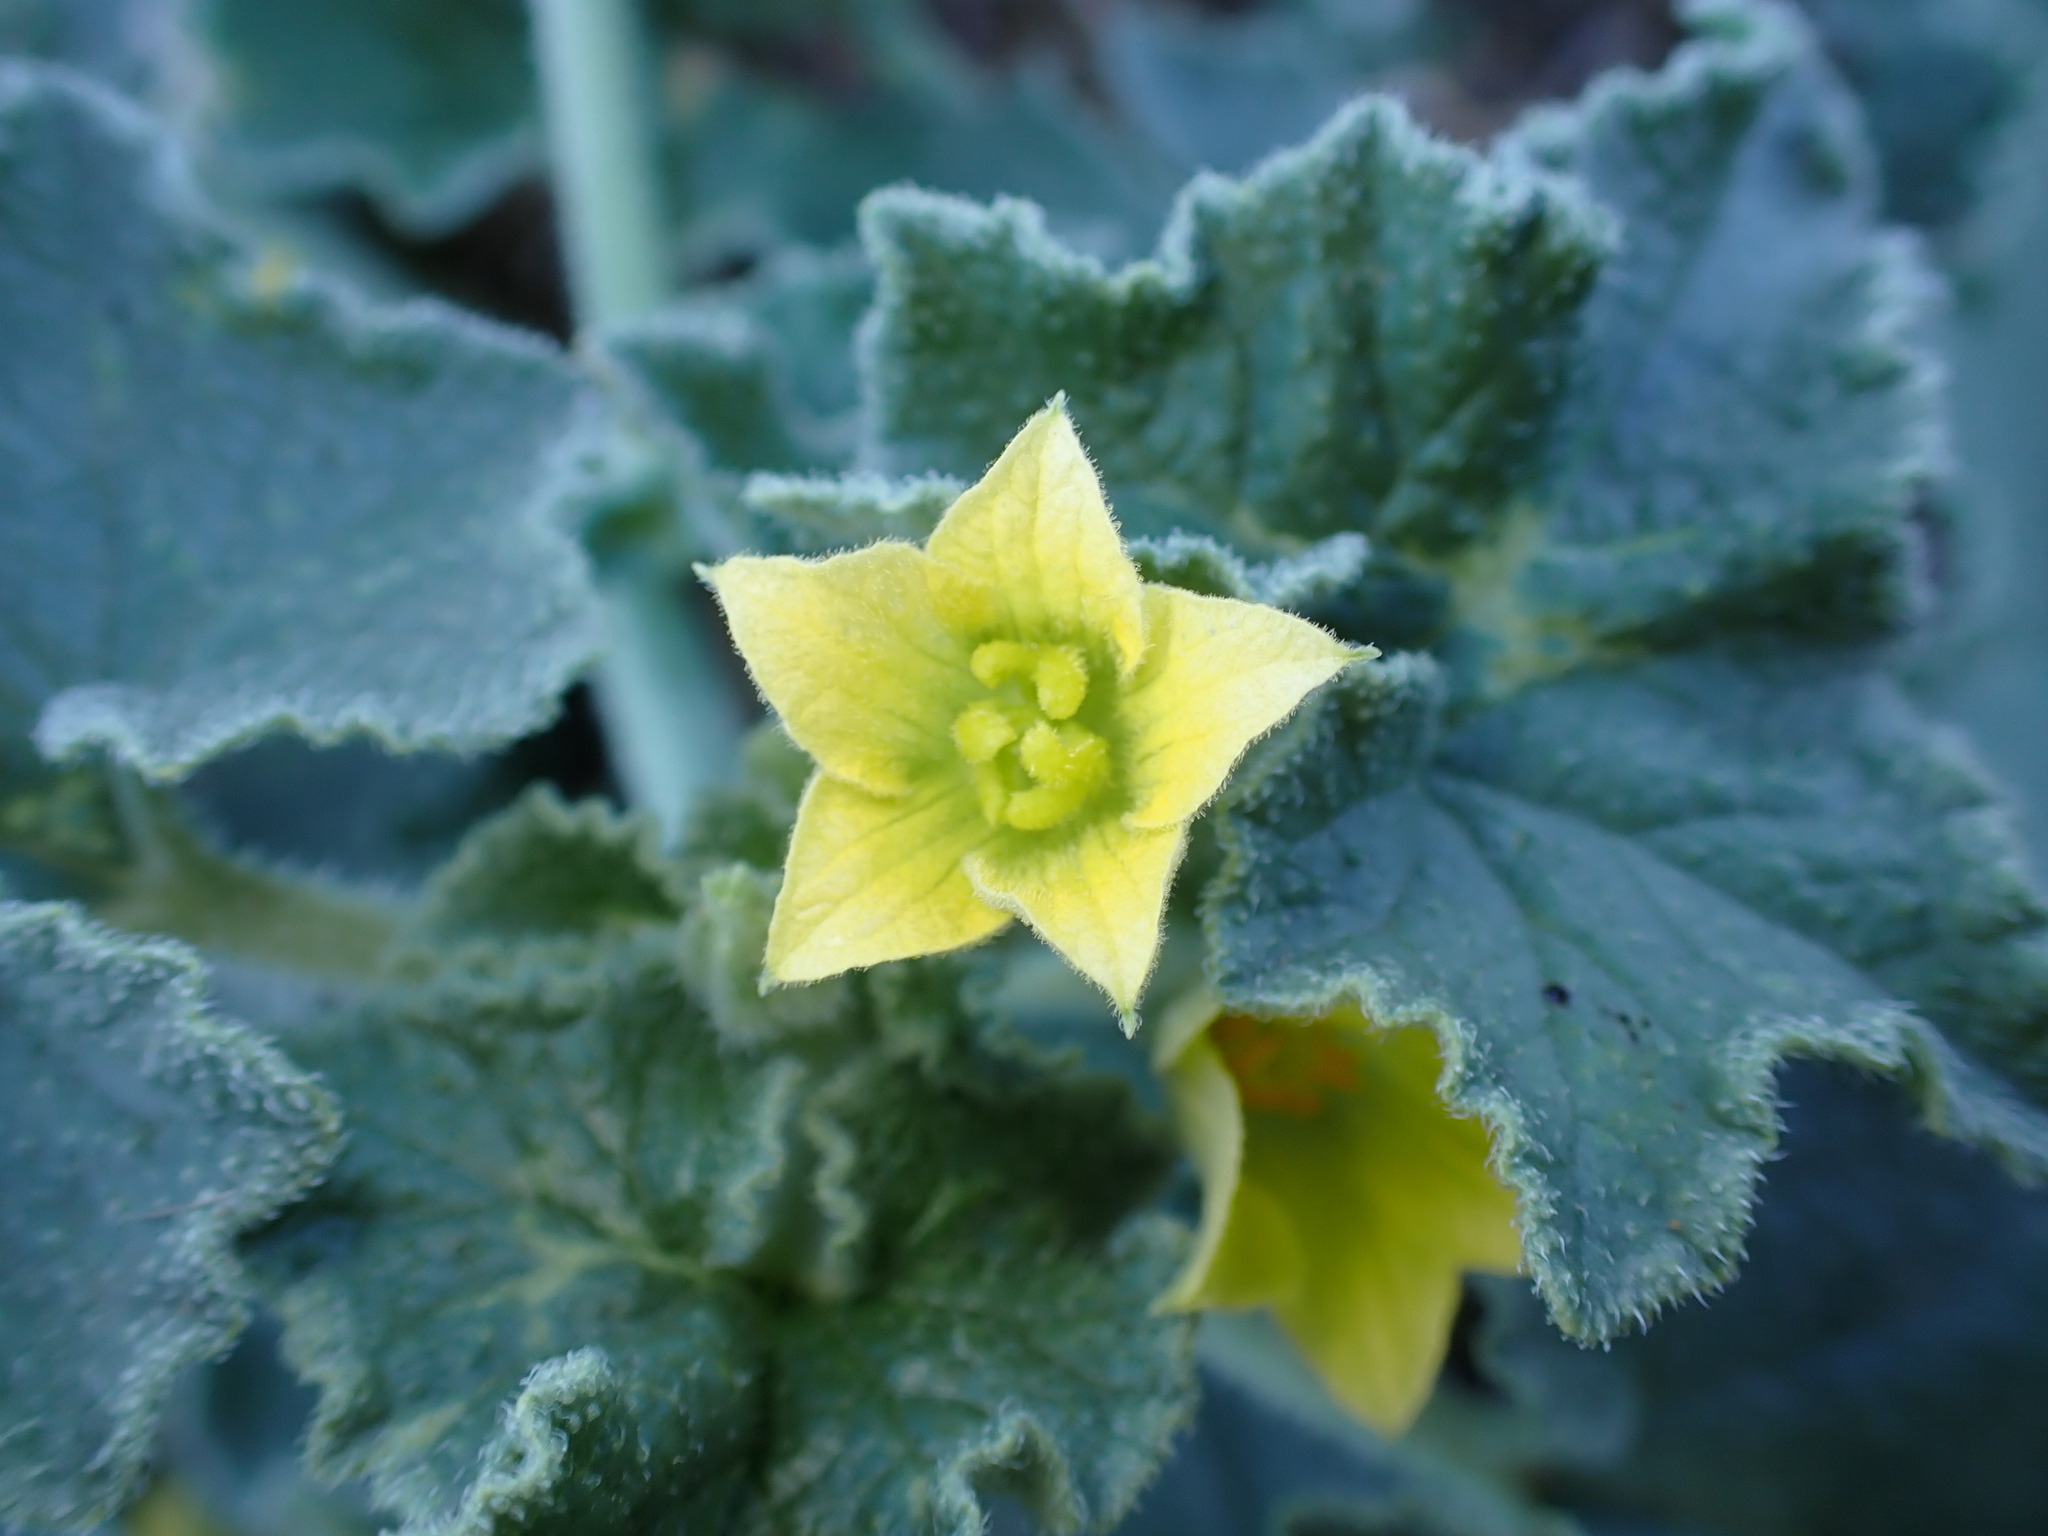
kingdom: Plantae
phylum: Tracheophyta
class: Magnoliopsida
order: Cucurbitales
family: Cucurbitaceae
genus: Ecballium
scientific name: Ecballium elaterium
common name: Squirting cucumber
